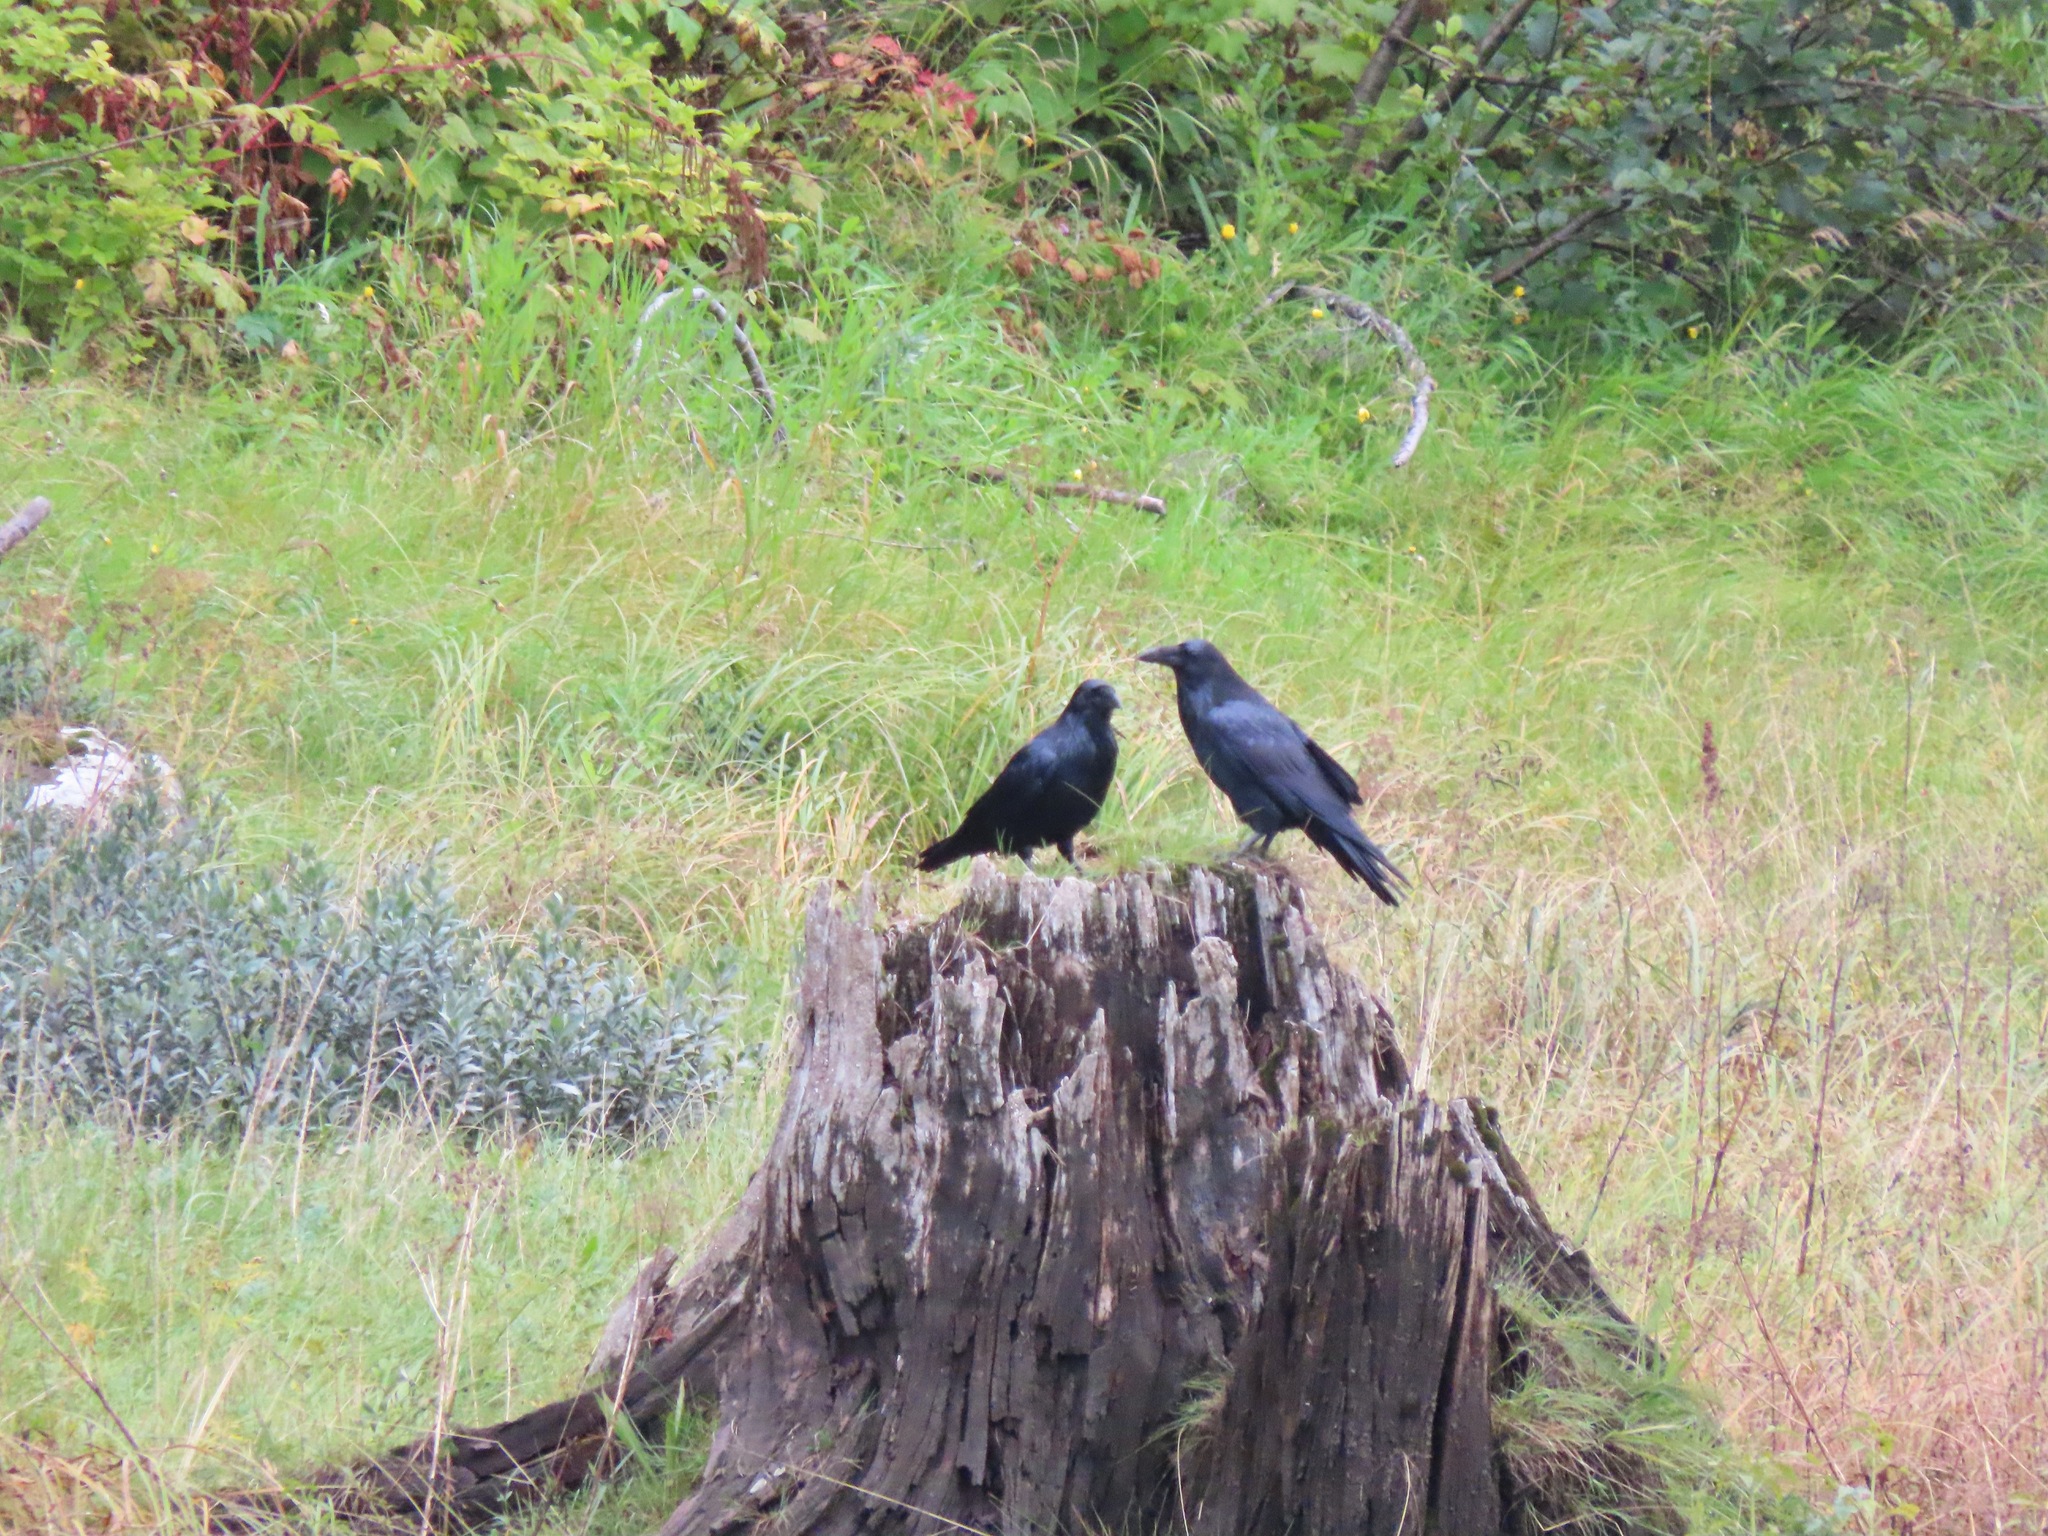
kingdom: Animalia
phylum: Chordata
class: Aves
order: Passeriformes
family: Corvidae
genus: Corvus
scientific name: Corvus corax
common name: Common raven
